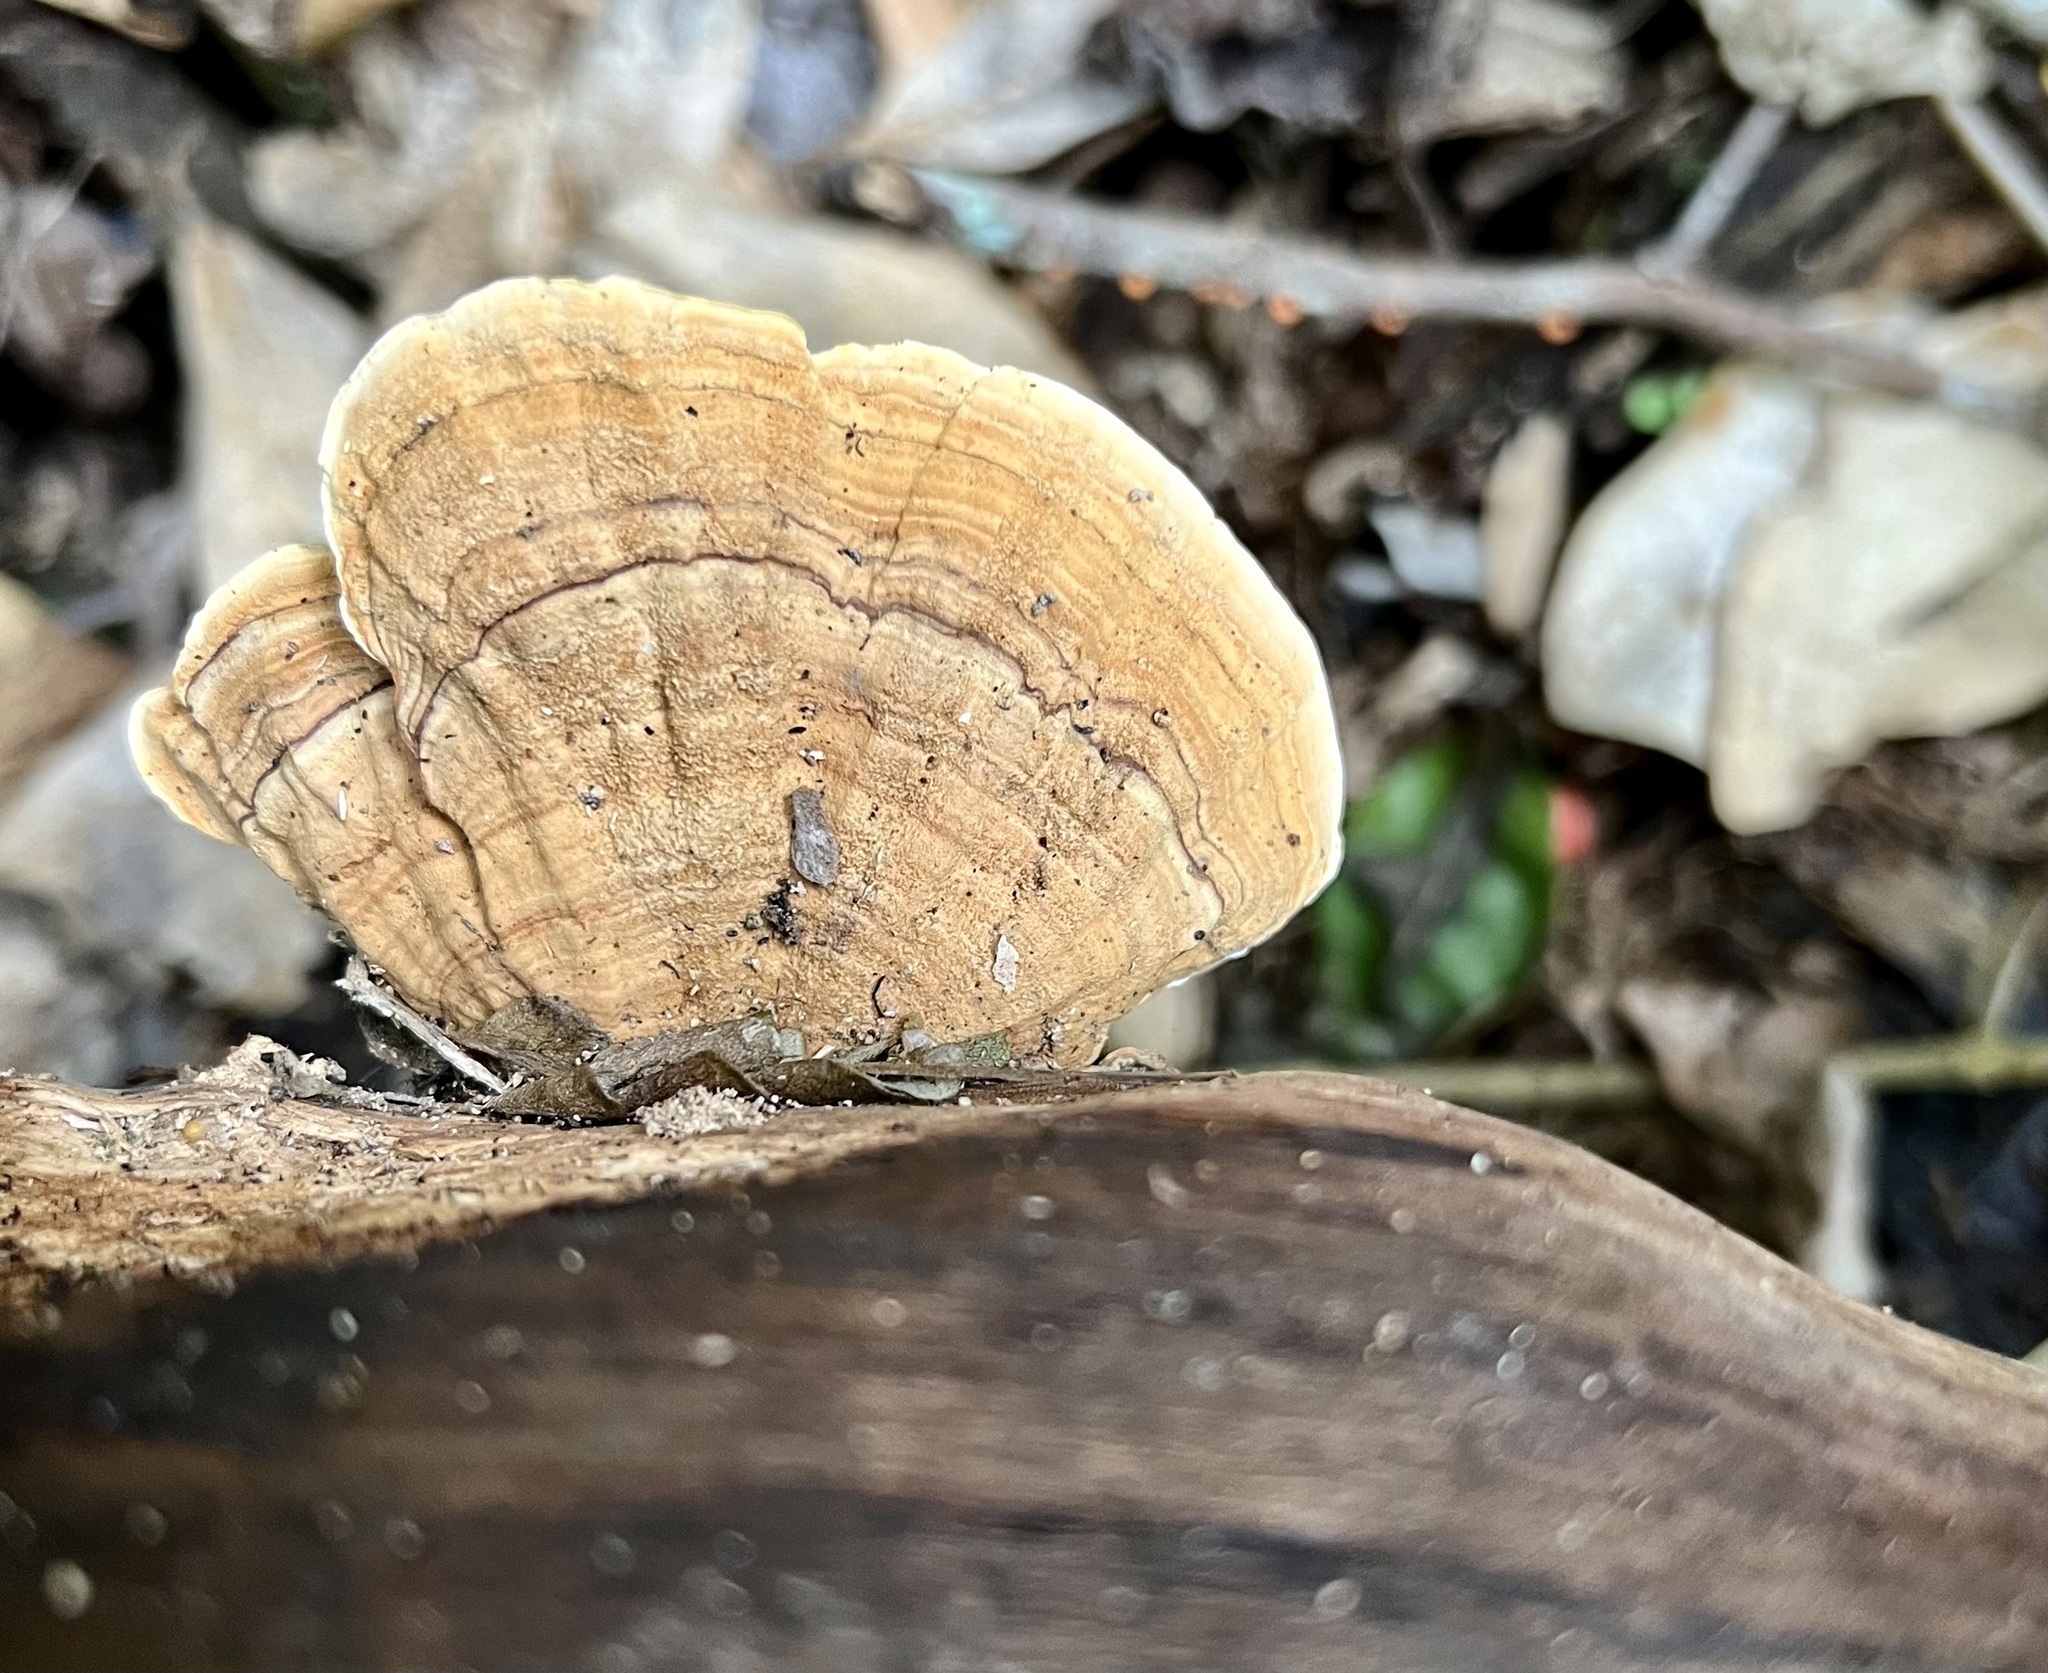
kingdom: Fungi
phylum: Basidiomycota
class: Agaricomycetes
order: Russulales
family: Stereaceae
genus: Stereum
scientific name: Stereum versicolor
